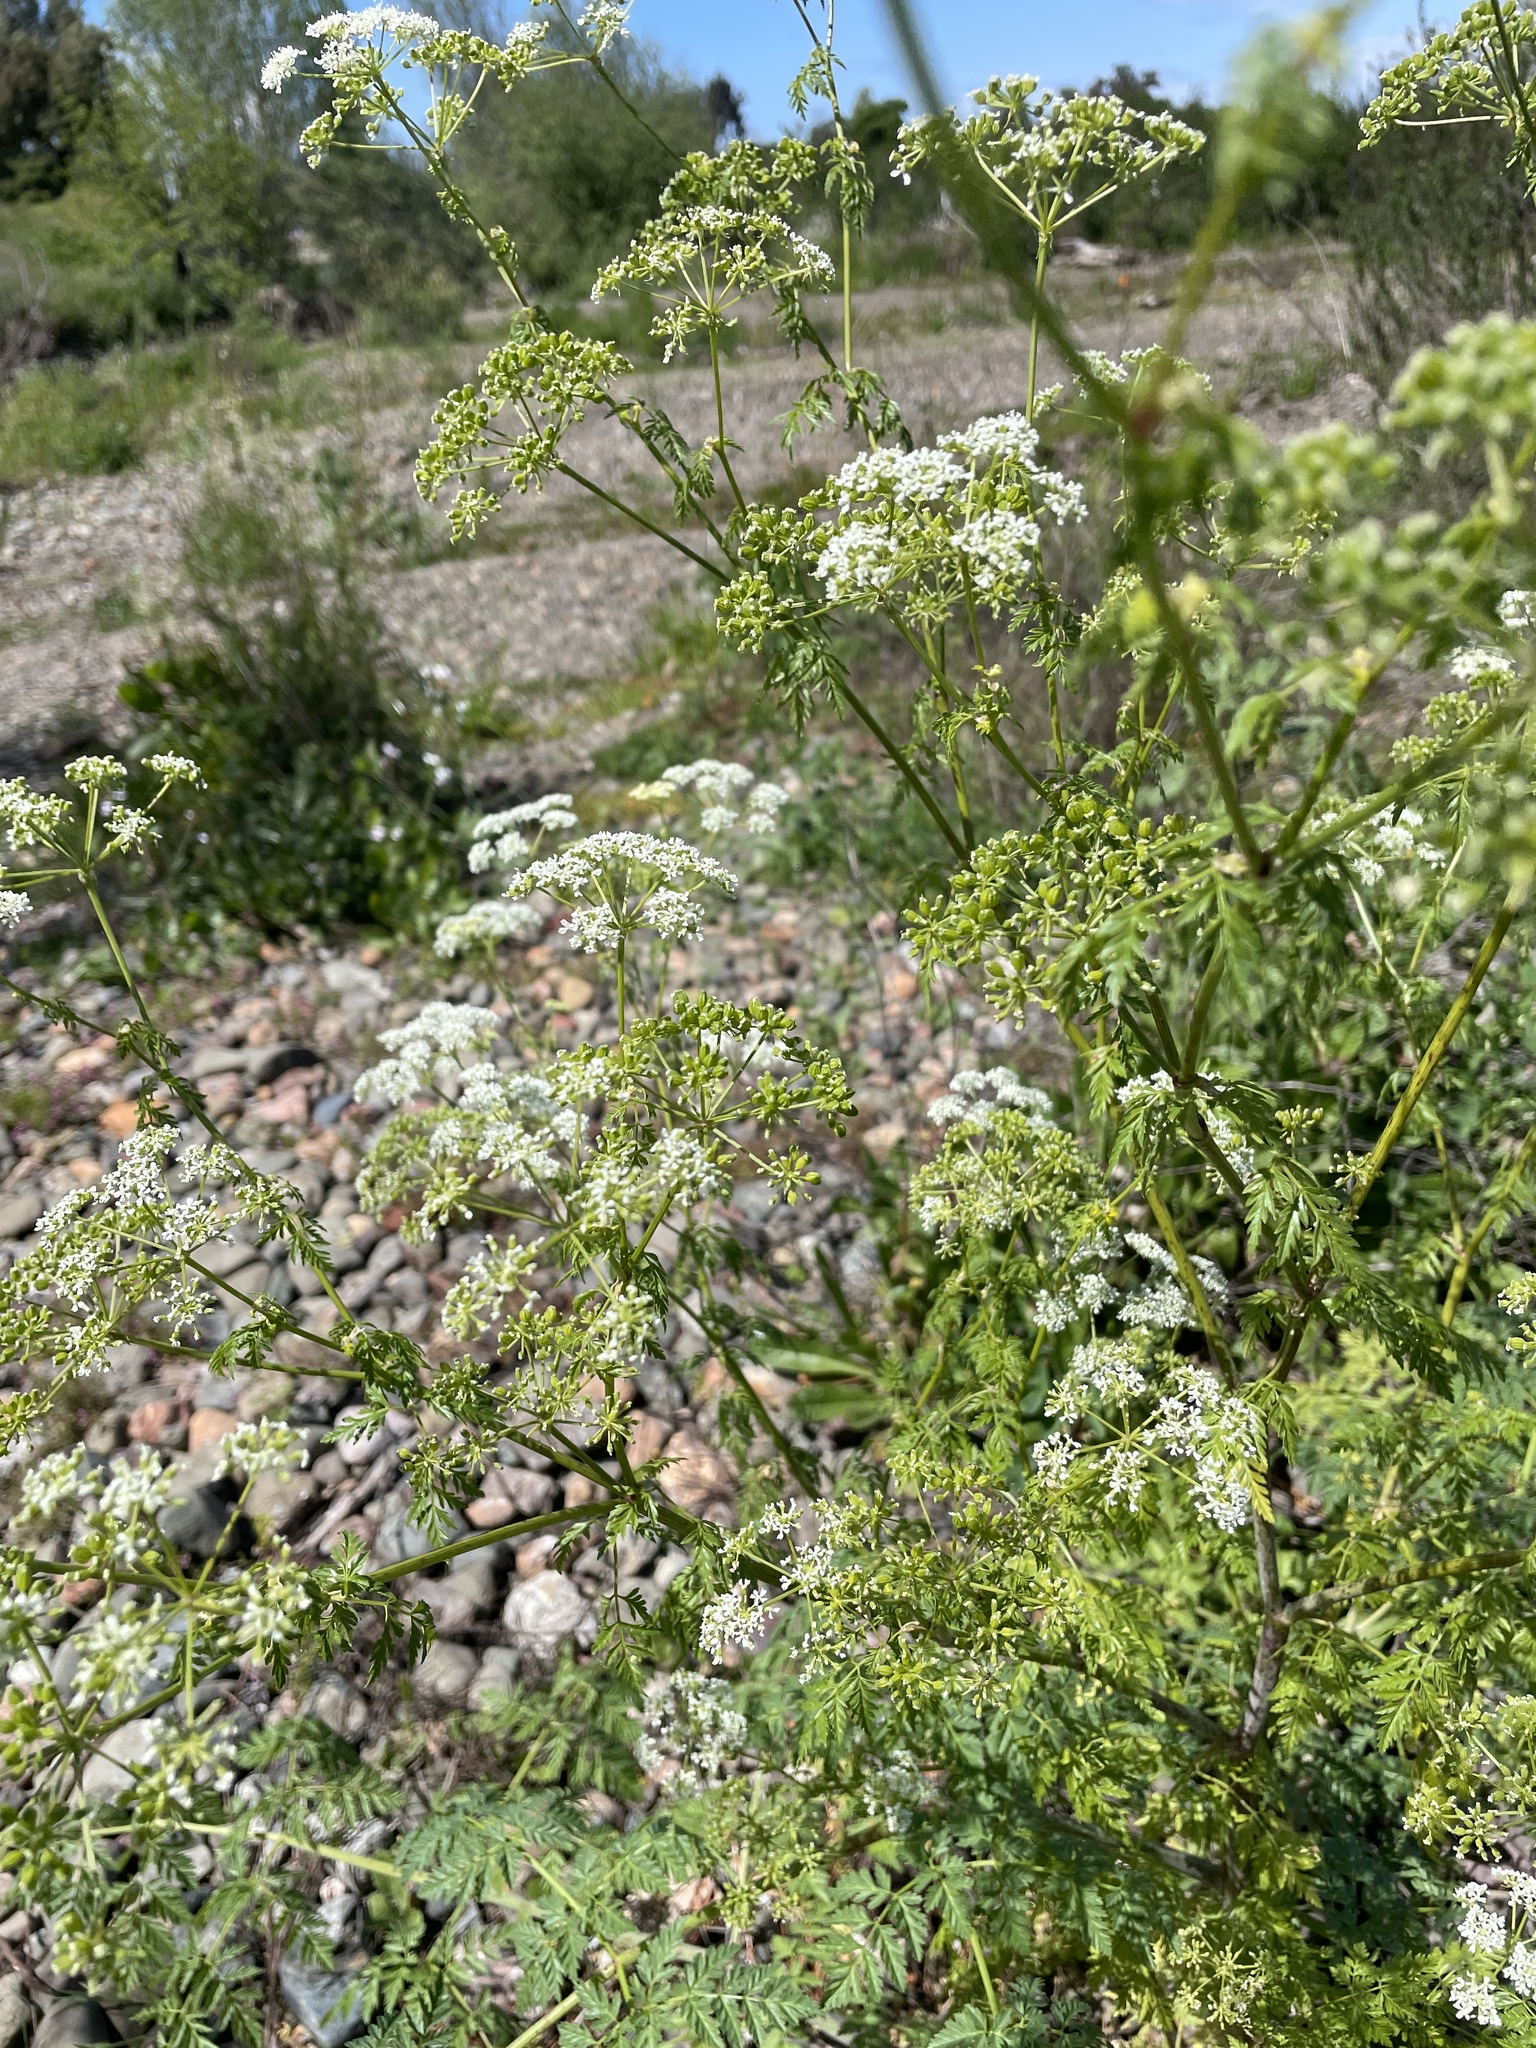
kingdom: Plantae
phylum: Tracheophyta
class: Magnoliopsida
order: Apiales
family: Apiaceae
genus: Conium
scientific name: Conium maculatum
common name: Hemlock
